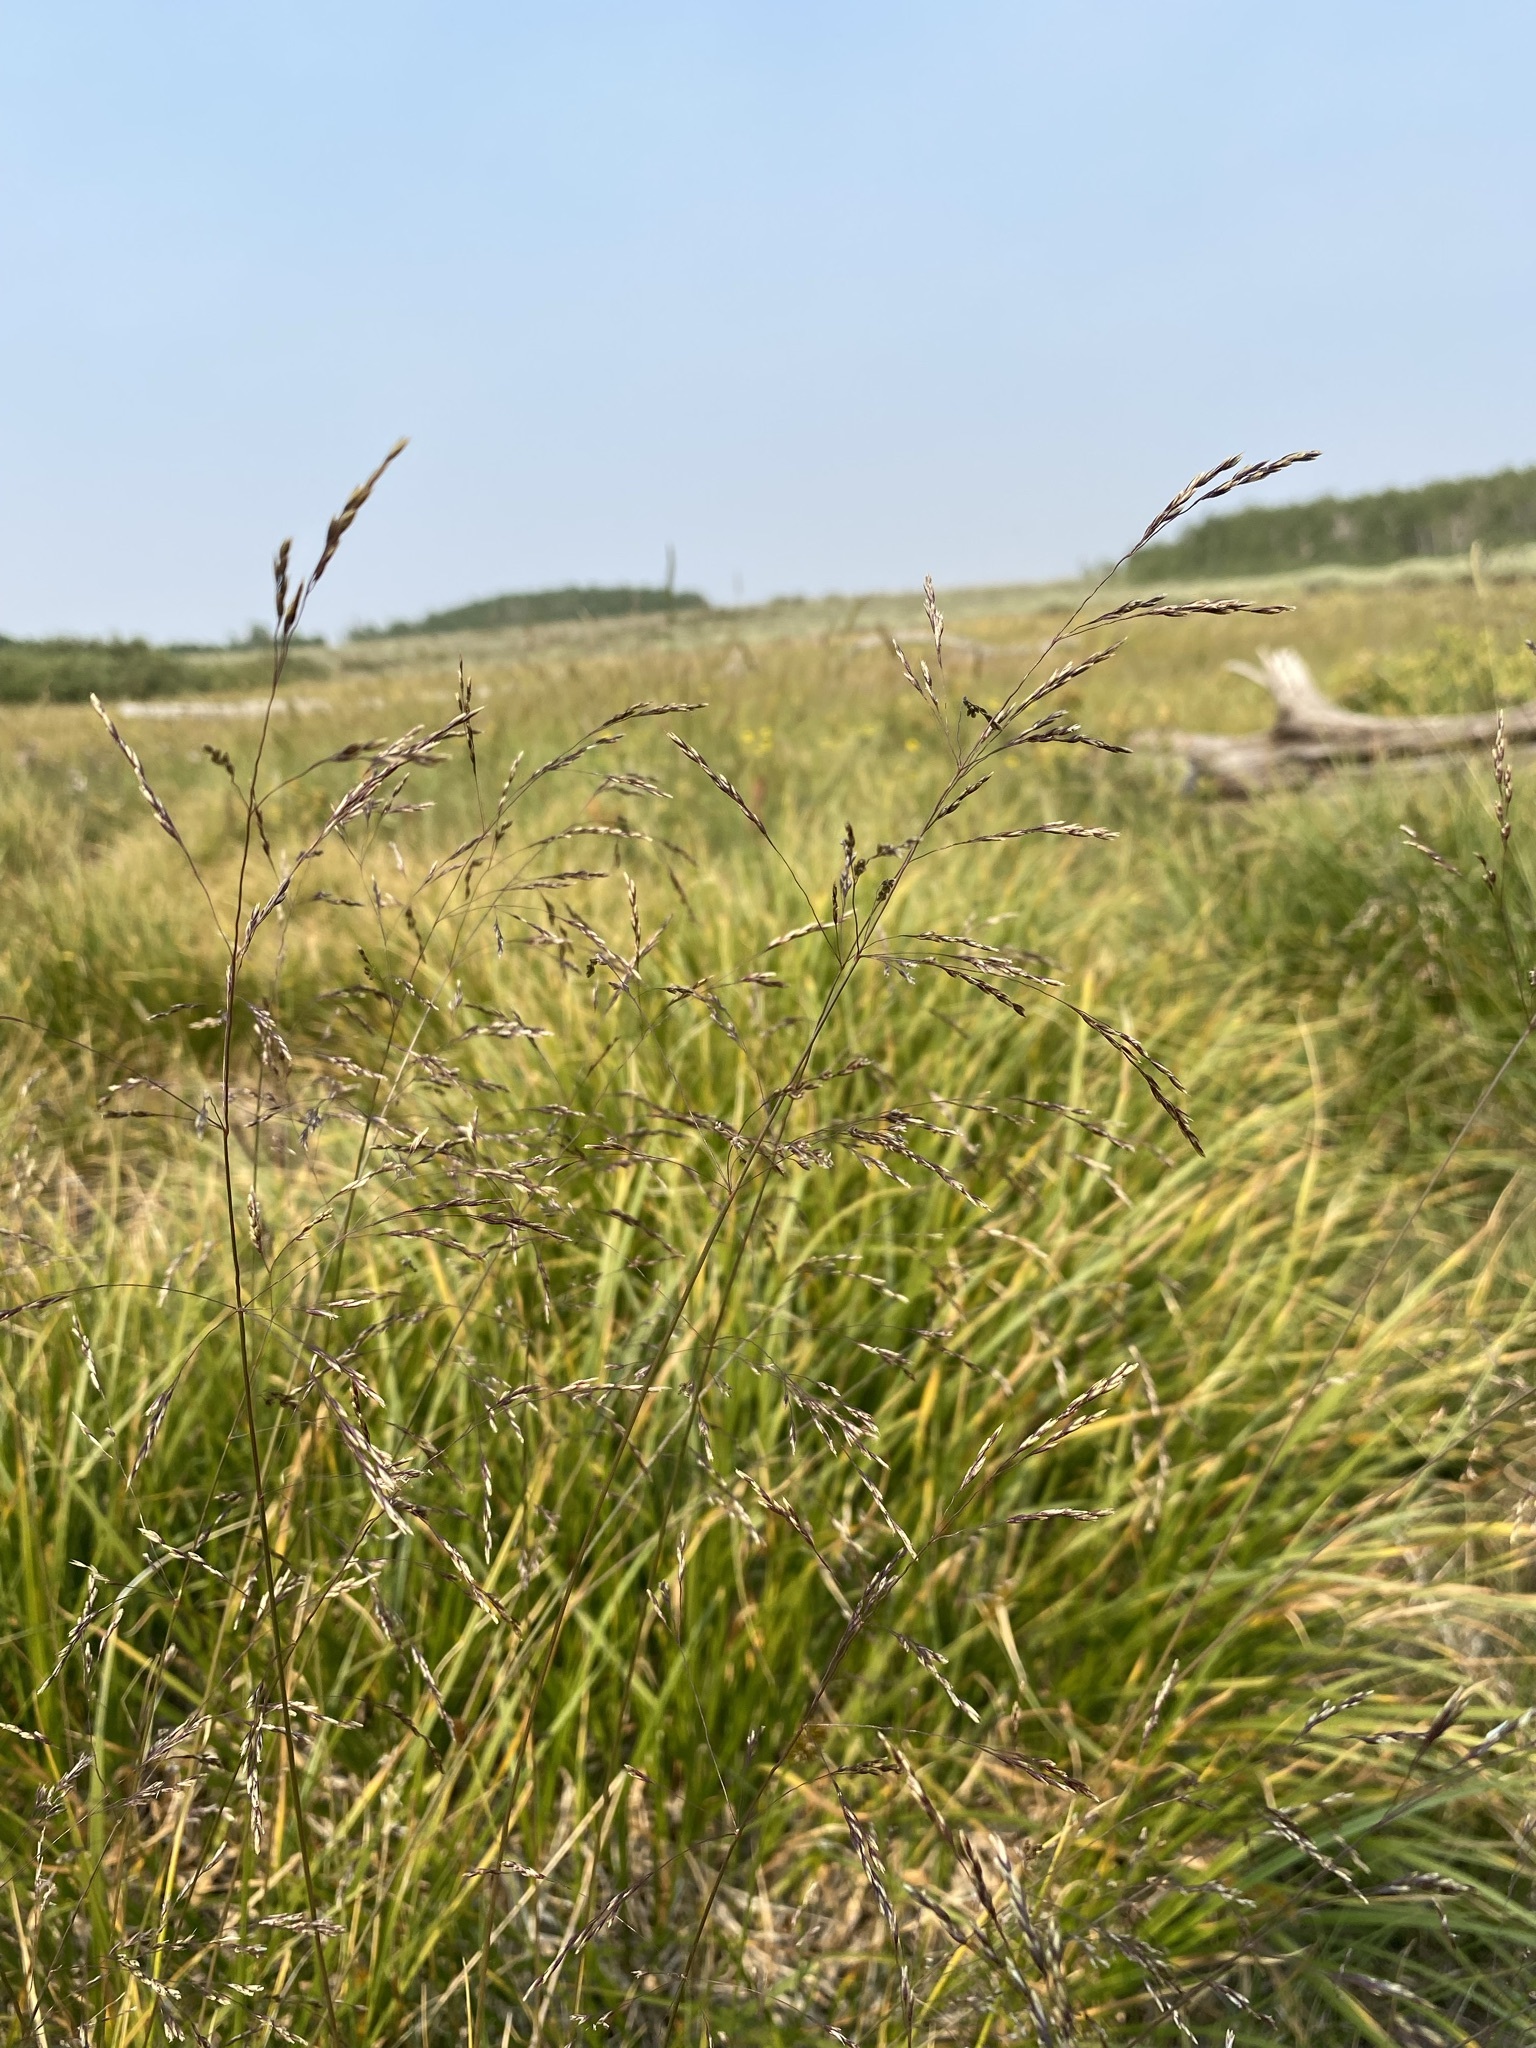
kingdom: Plantae
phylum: Tracheophyta
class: Liliopsida
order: Poales
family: Poaceae
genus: Deschampsia
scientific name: Deschampsia cespitosa
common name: Tufted hair-grass
